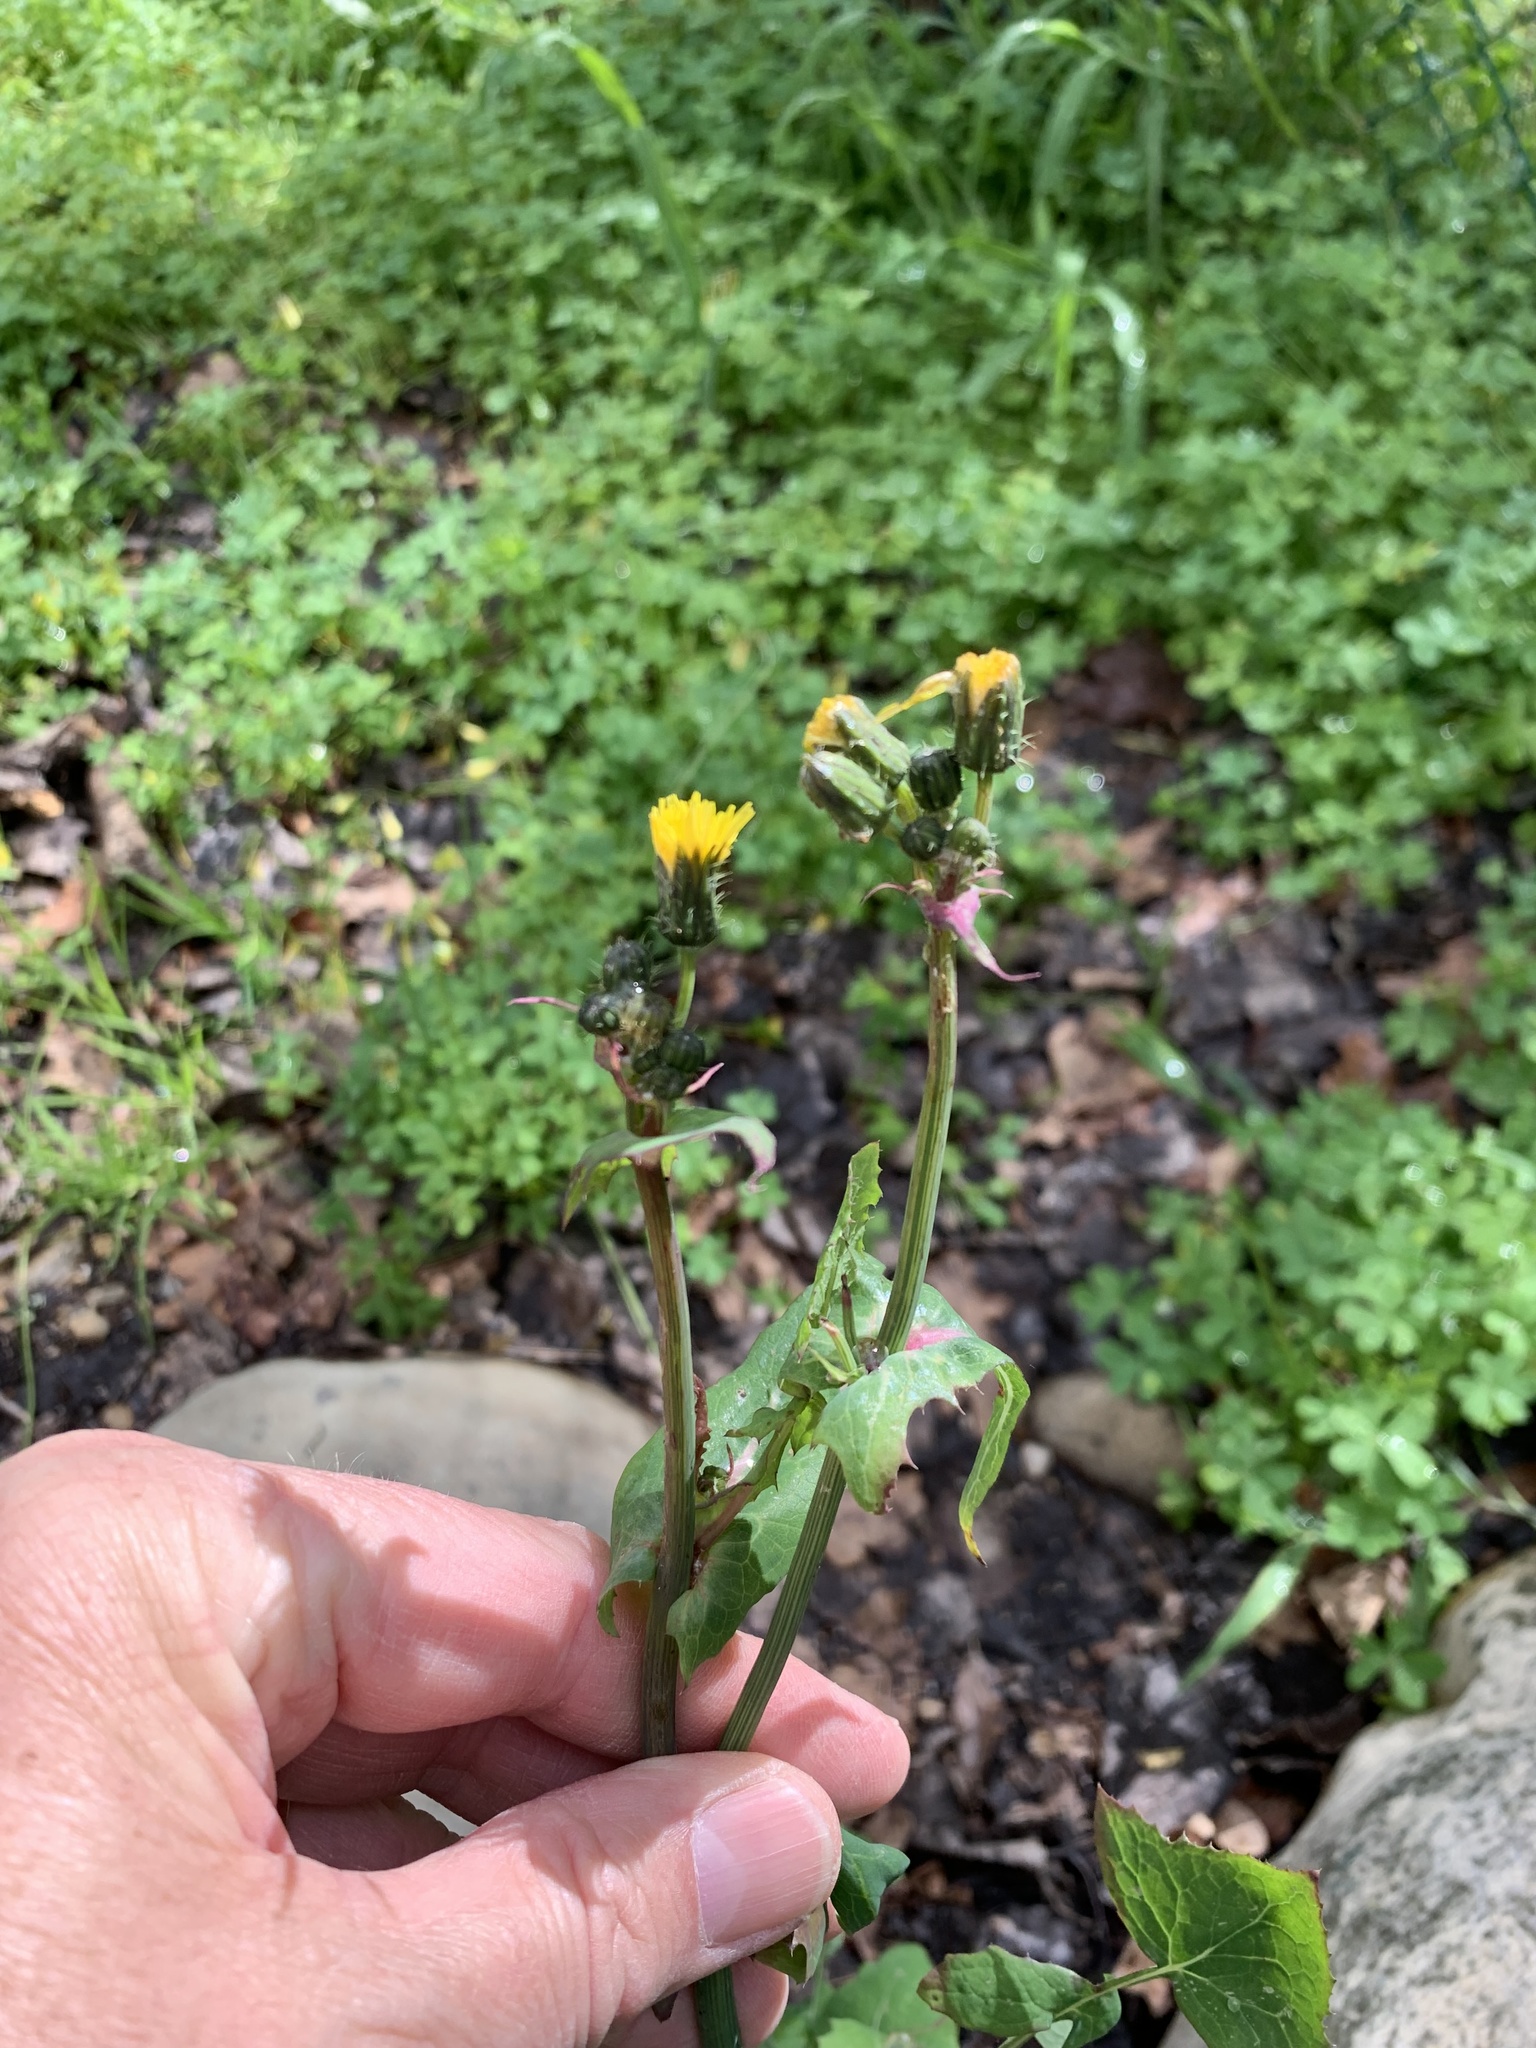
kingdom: Plantae
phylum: Tracheophyta
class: Magnoliopsida
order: Asterales
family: Asteraceae
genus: Sonchus
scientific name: Sonchus oleraceus
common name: Common sowthistle
